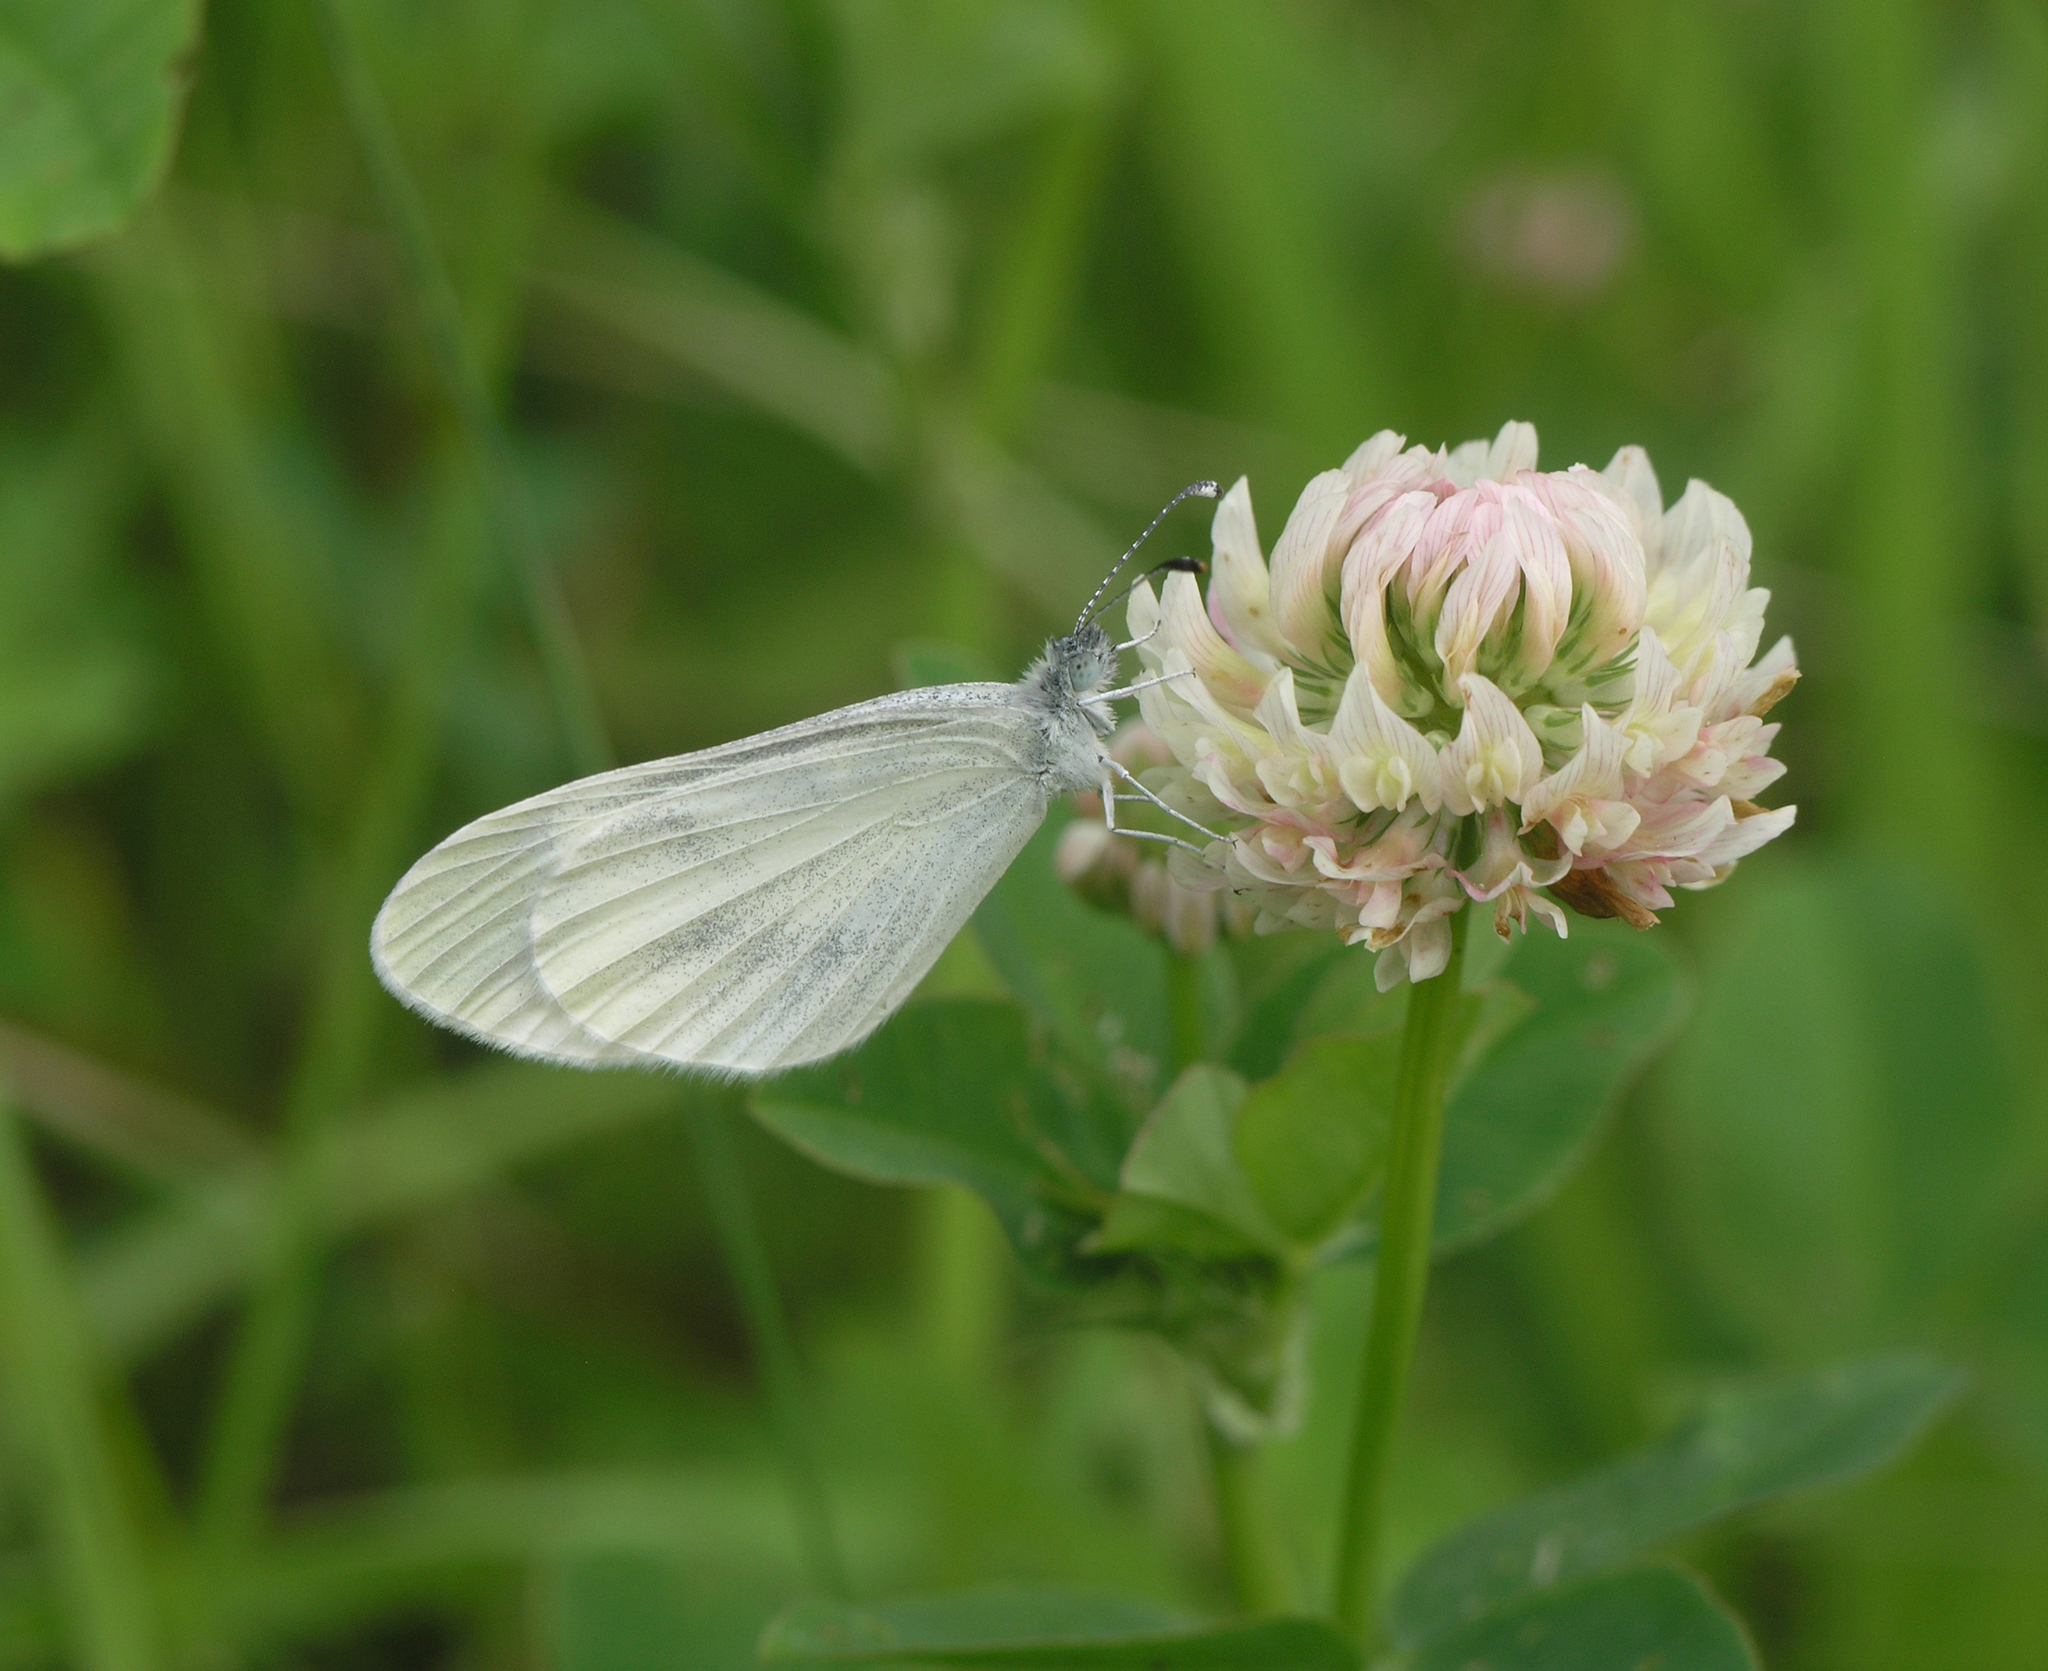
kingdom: Plantae
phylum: Tracheophyta
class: Magnoliopsida
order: Fabales
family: Fabaceae
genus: Trifolium
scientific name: Trifolium hybridum
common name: Alsike clover
